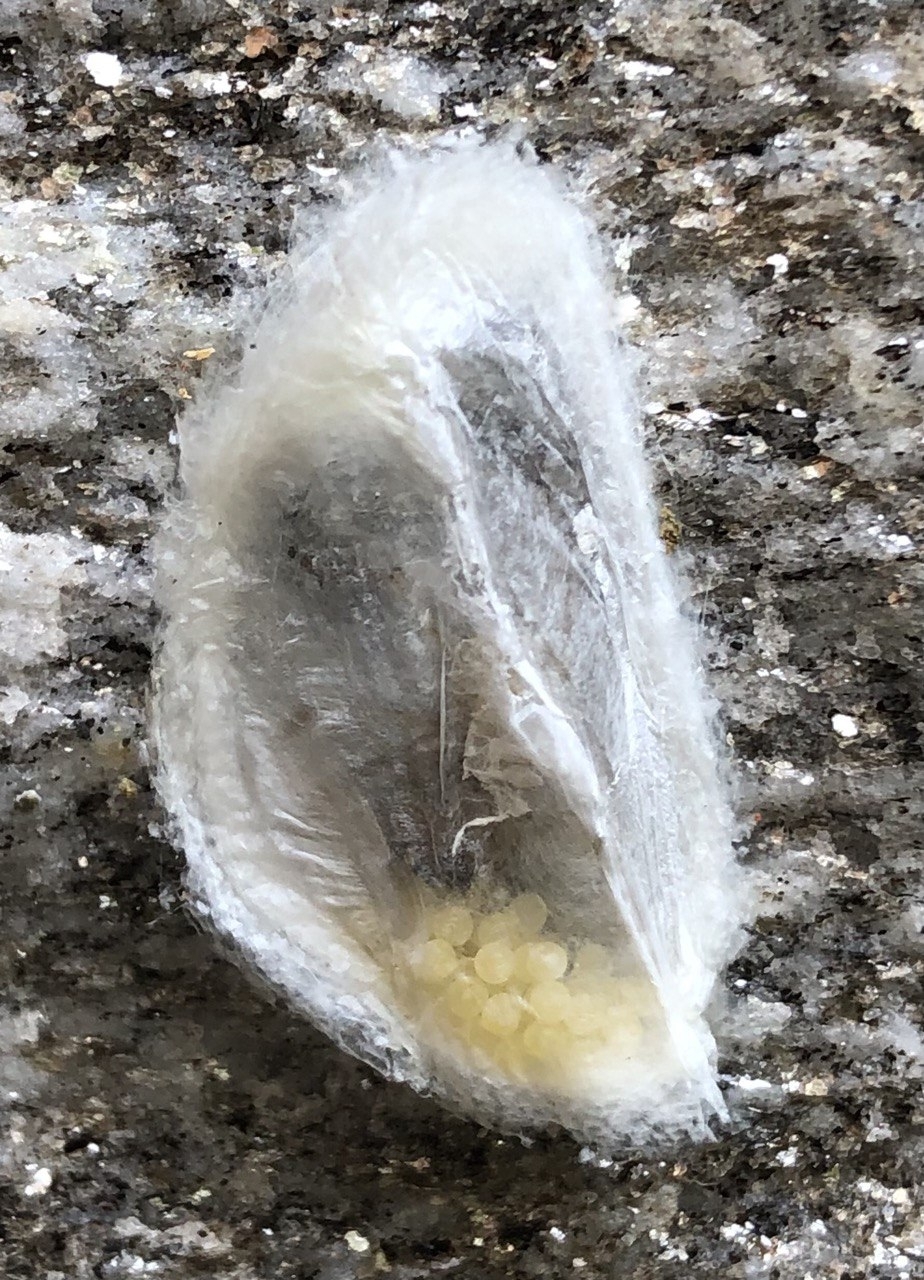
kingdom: Animalia
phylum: Arthropoda
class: Arachnida
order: Araneae
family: Cheiracanthiidae
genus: Cheiracanthium
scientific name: Cheiracanthium mildei
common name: Northern yellow sac spider
